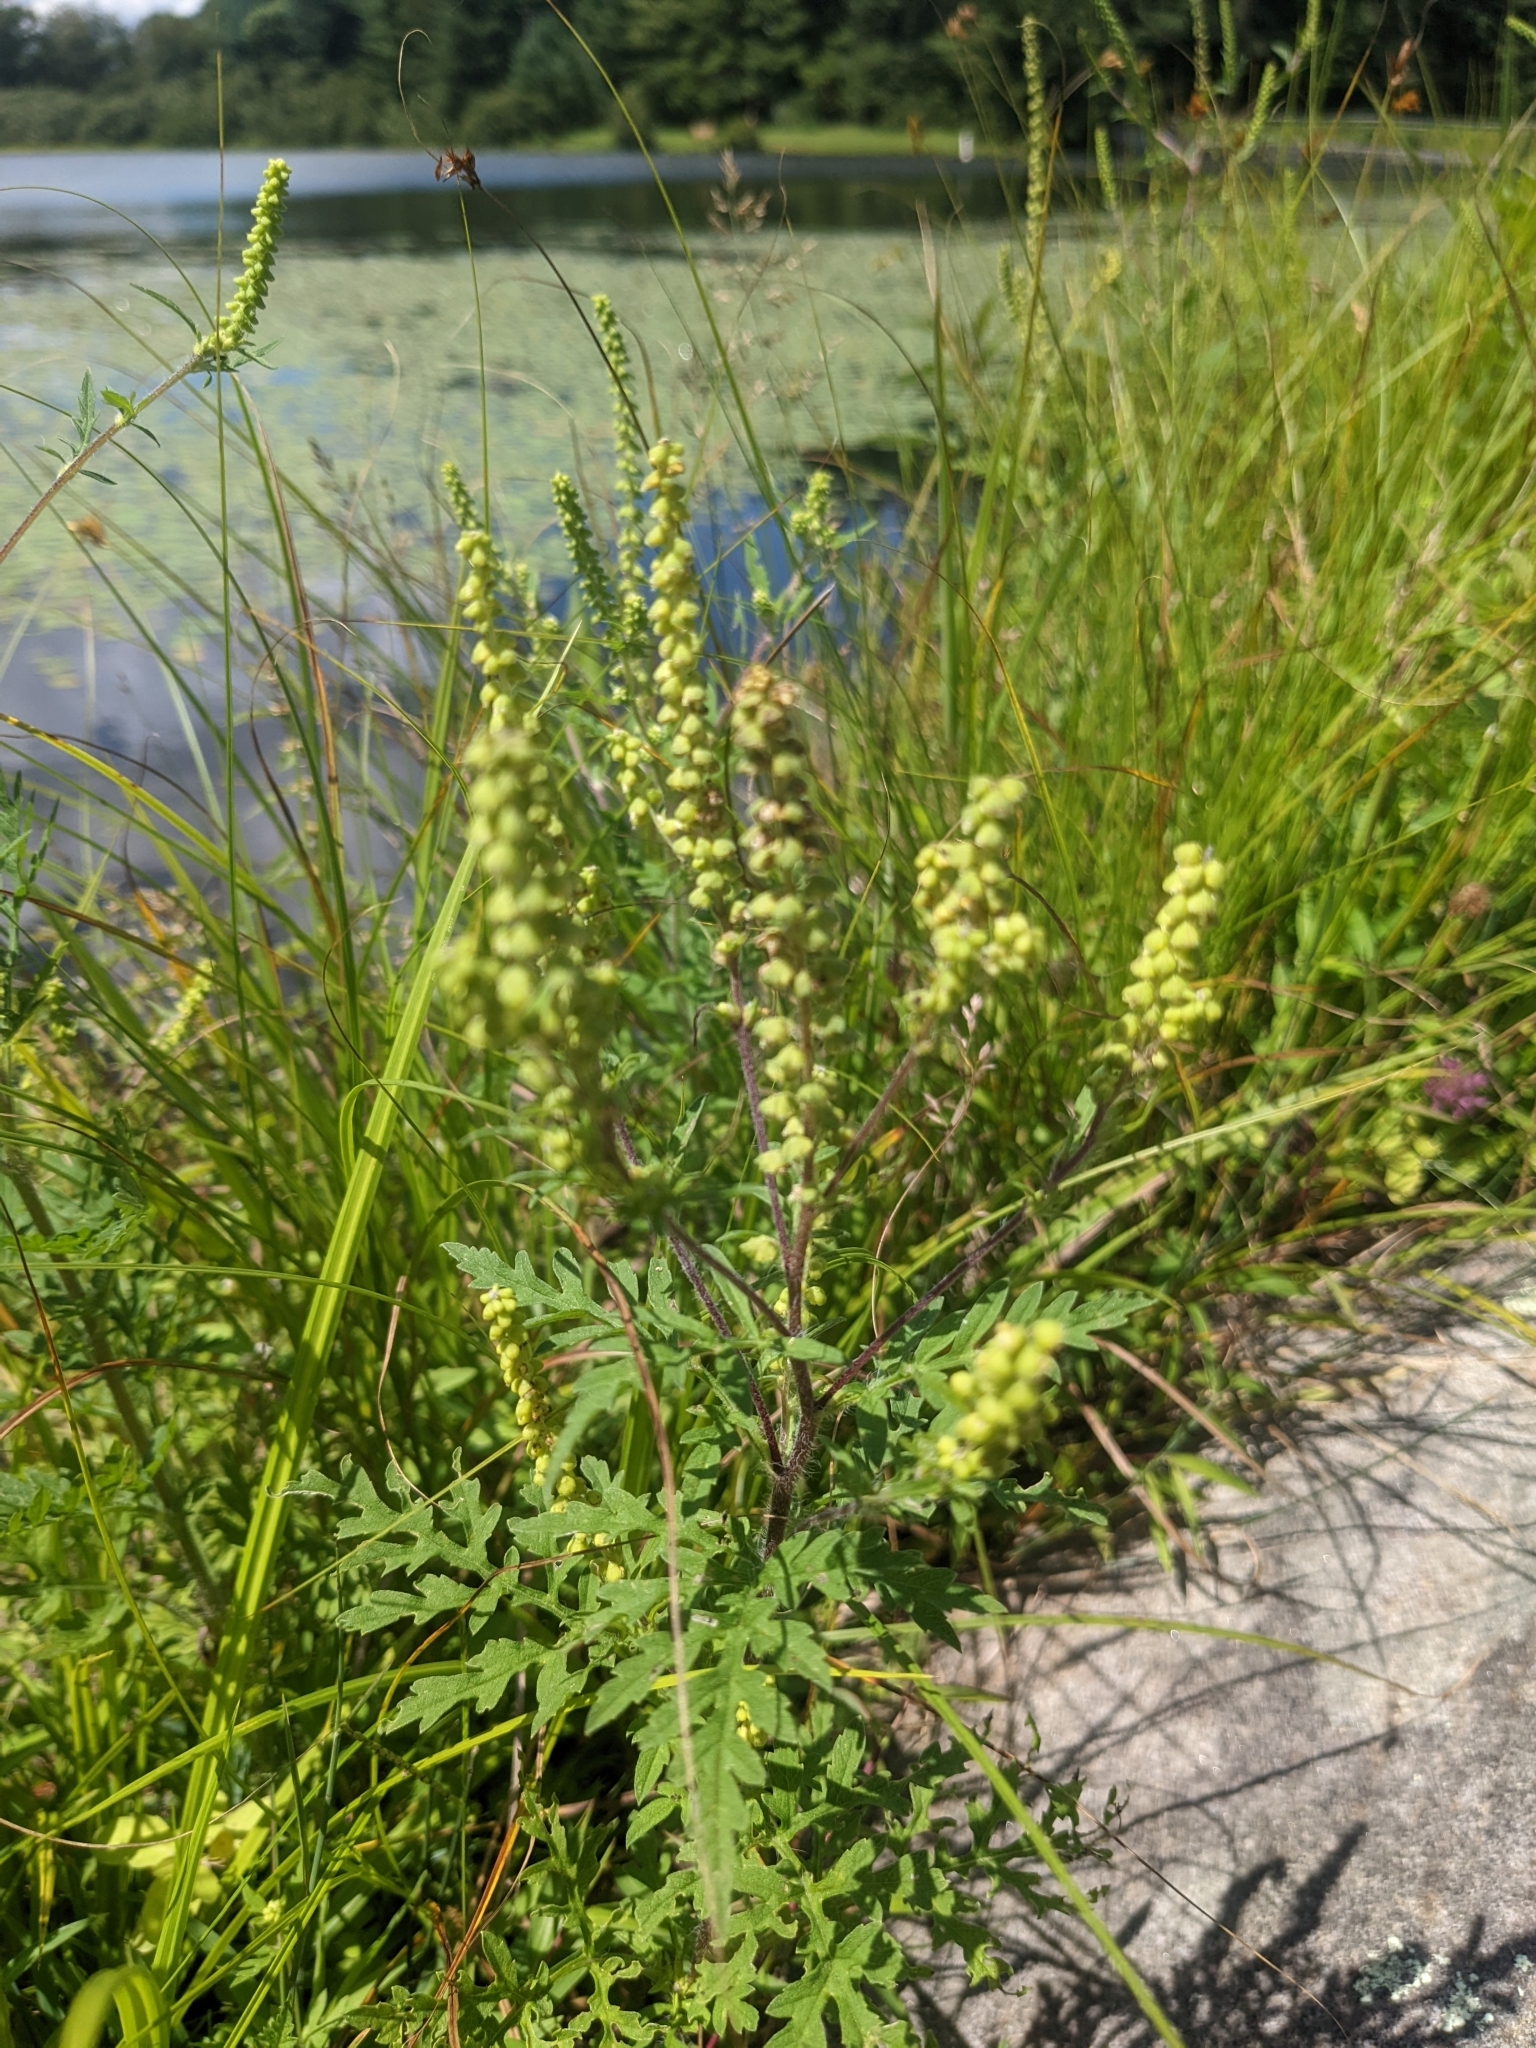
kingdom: Plantae
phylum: Tracheophyta
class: Magnoliopsida
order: Asterales
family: Asteraceae
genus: Ambrosia
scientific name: Ambrosia artemisiifolia
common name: Annual ragweed
